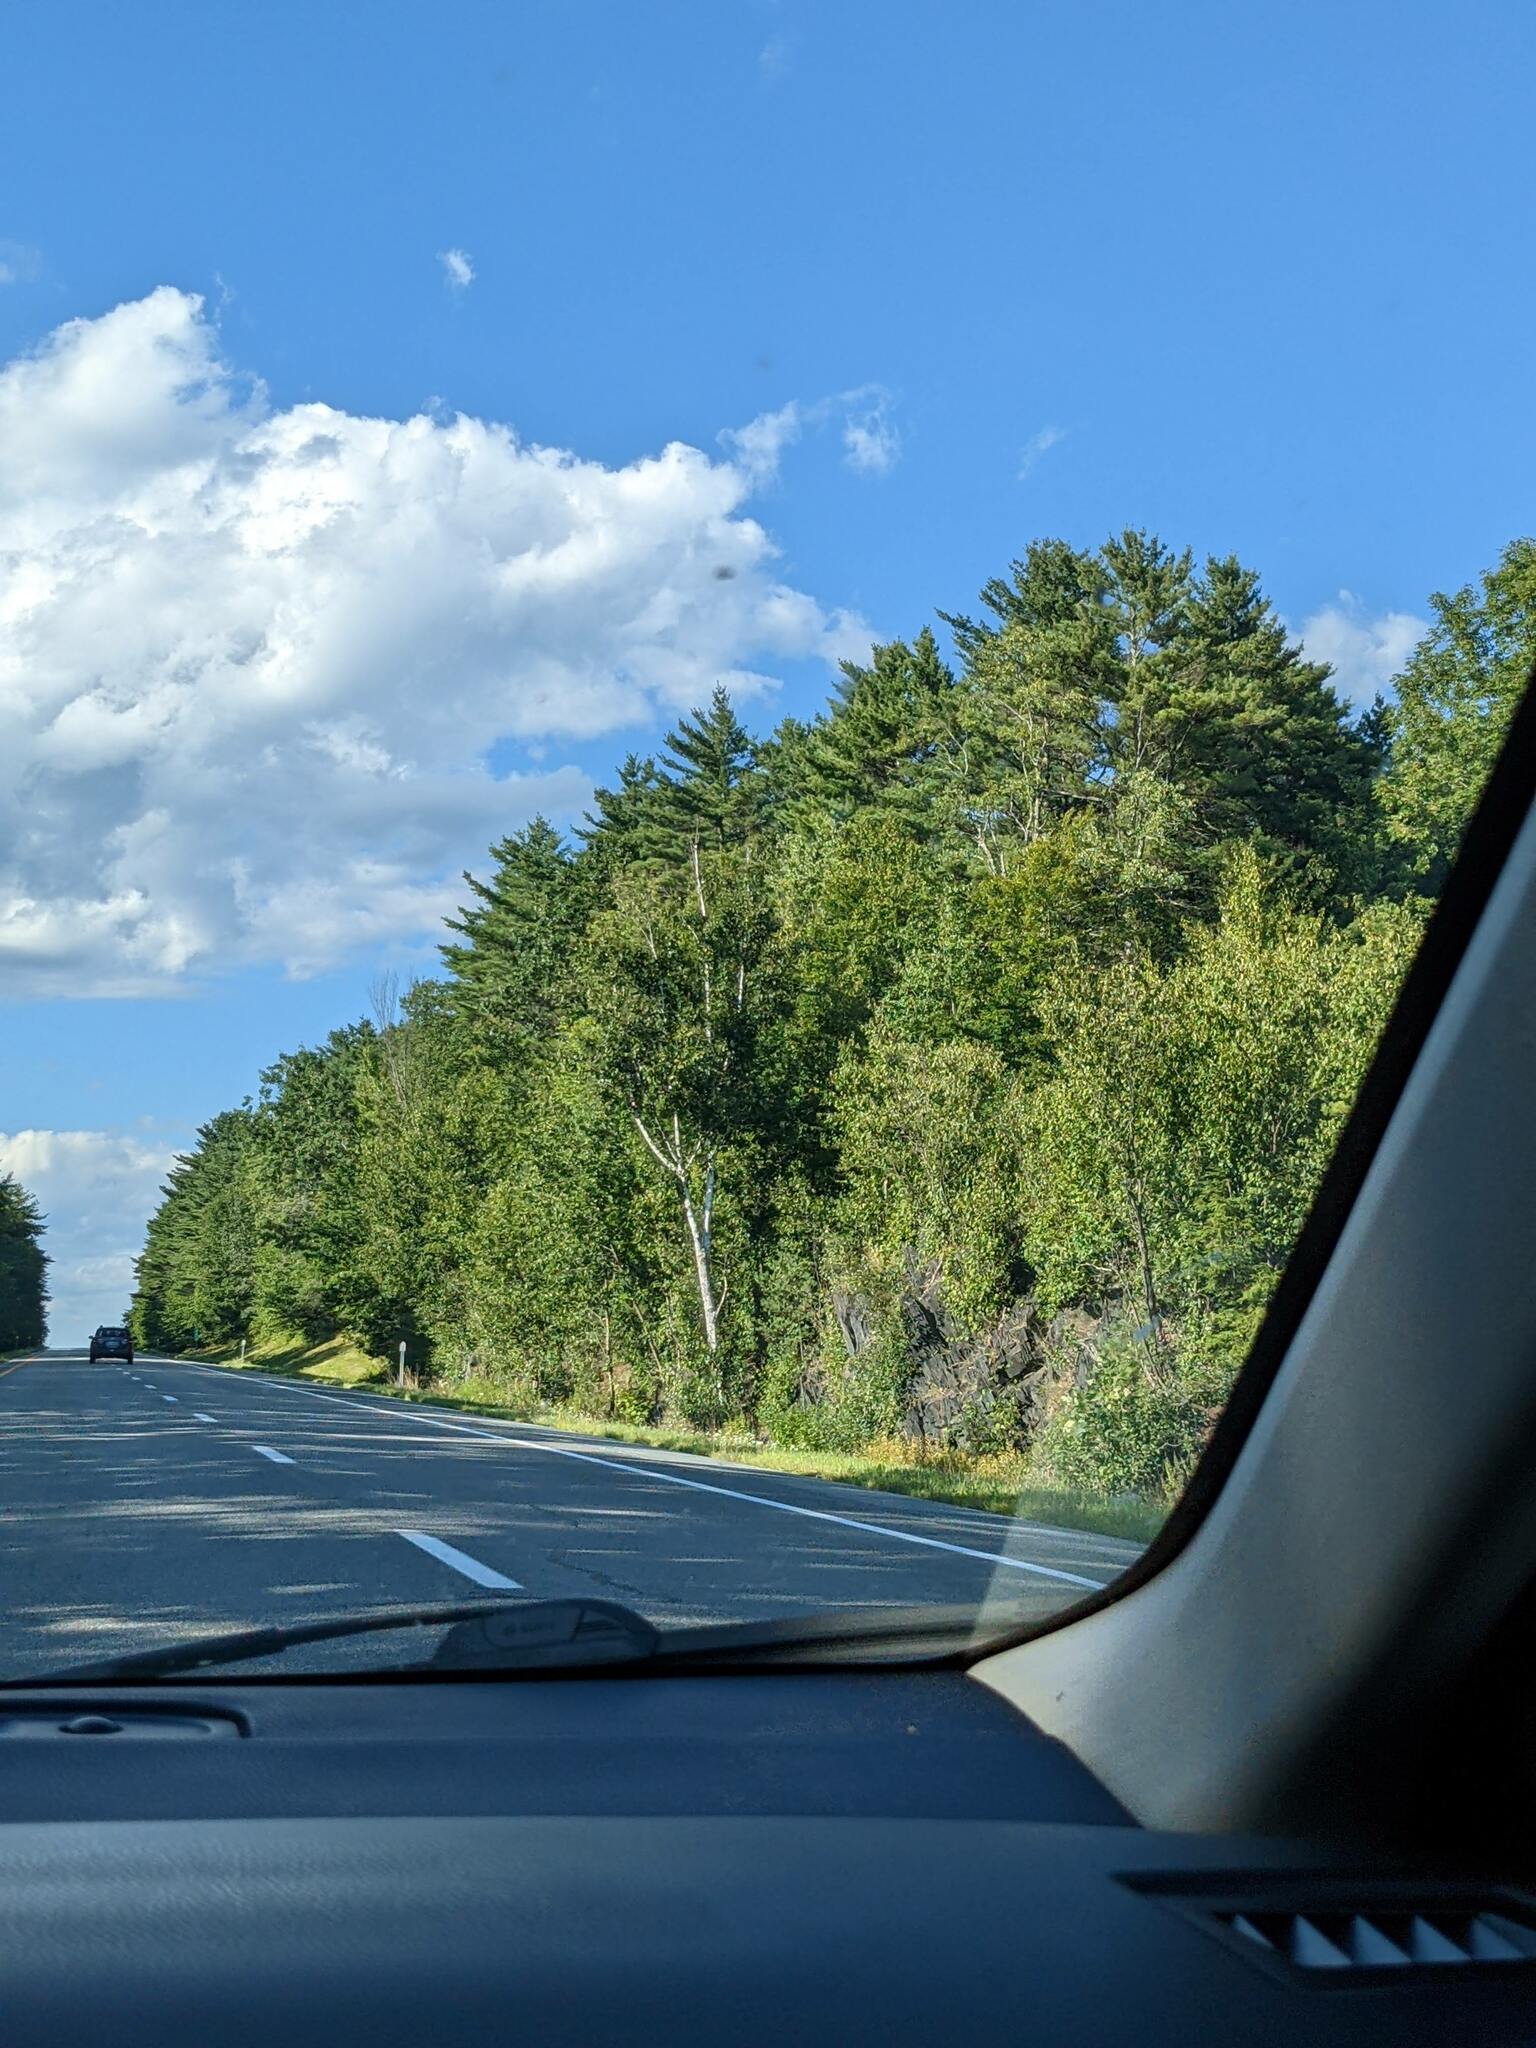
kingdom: Plantae
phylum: Tracheophyta
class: Pinopsida
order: Pinales
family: Pinaceae
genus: Pinus
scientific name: Pinus strobus
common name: Weymouth pine
